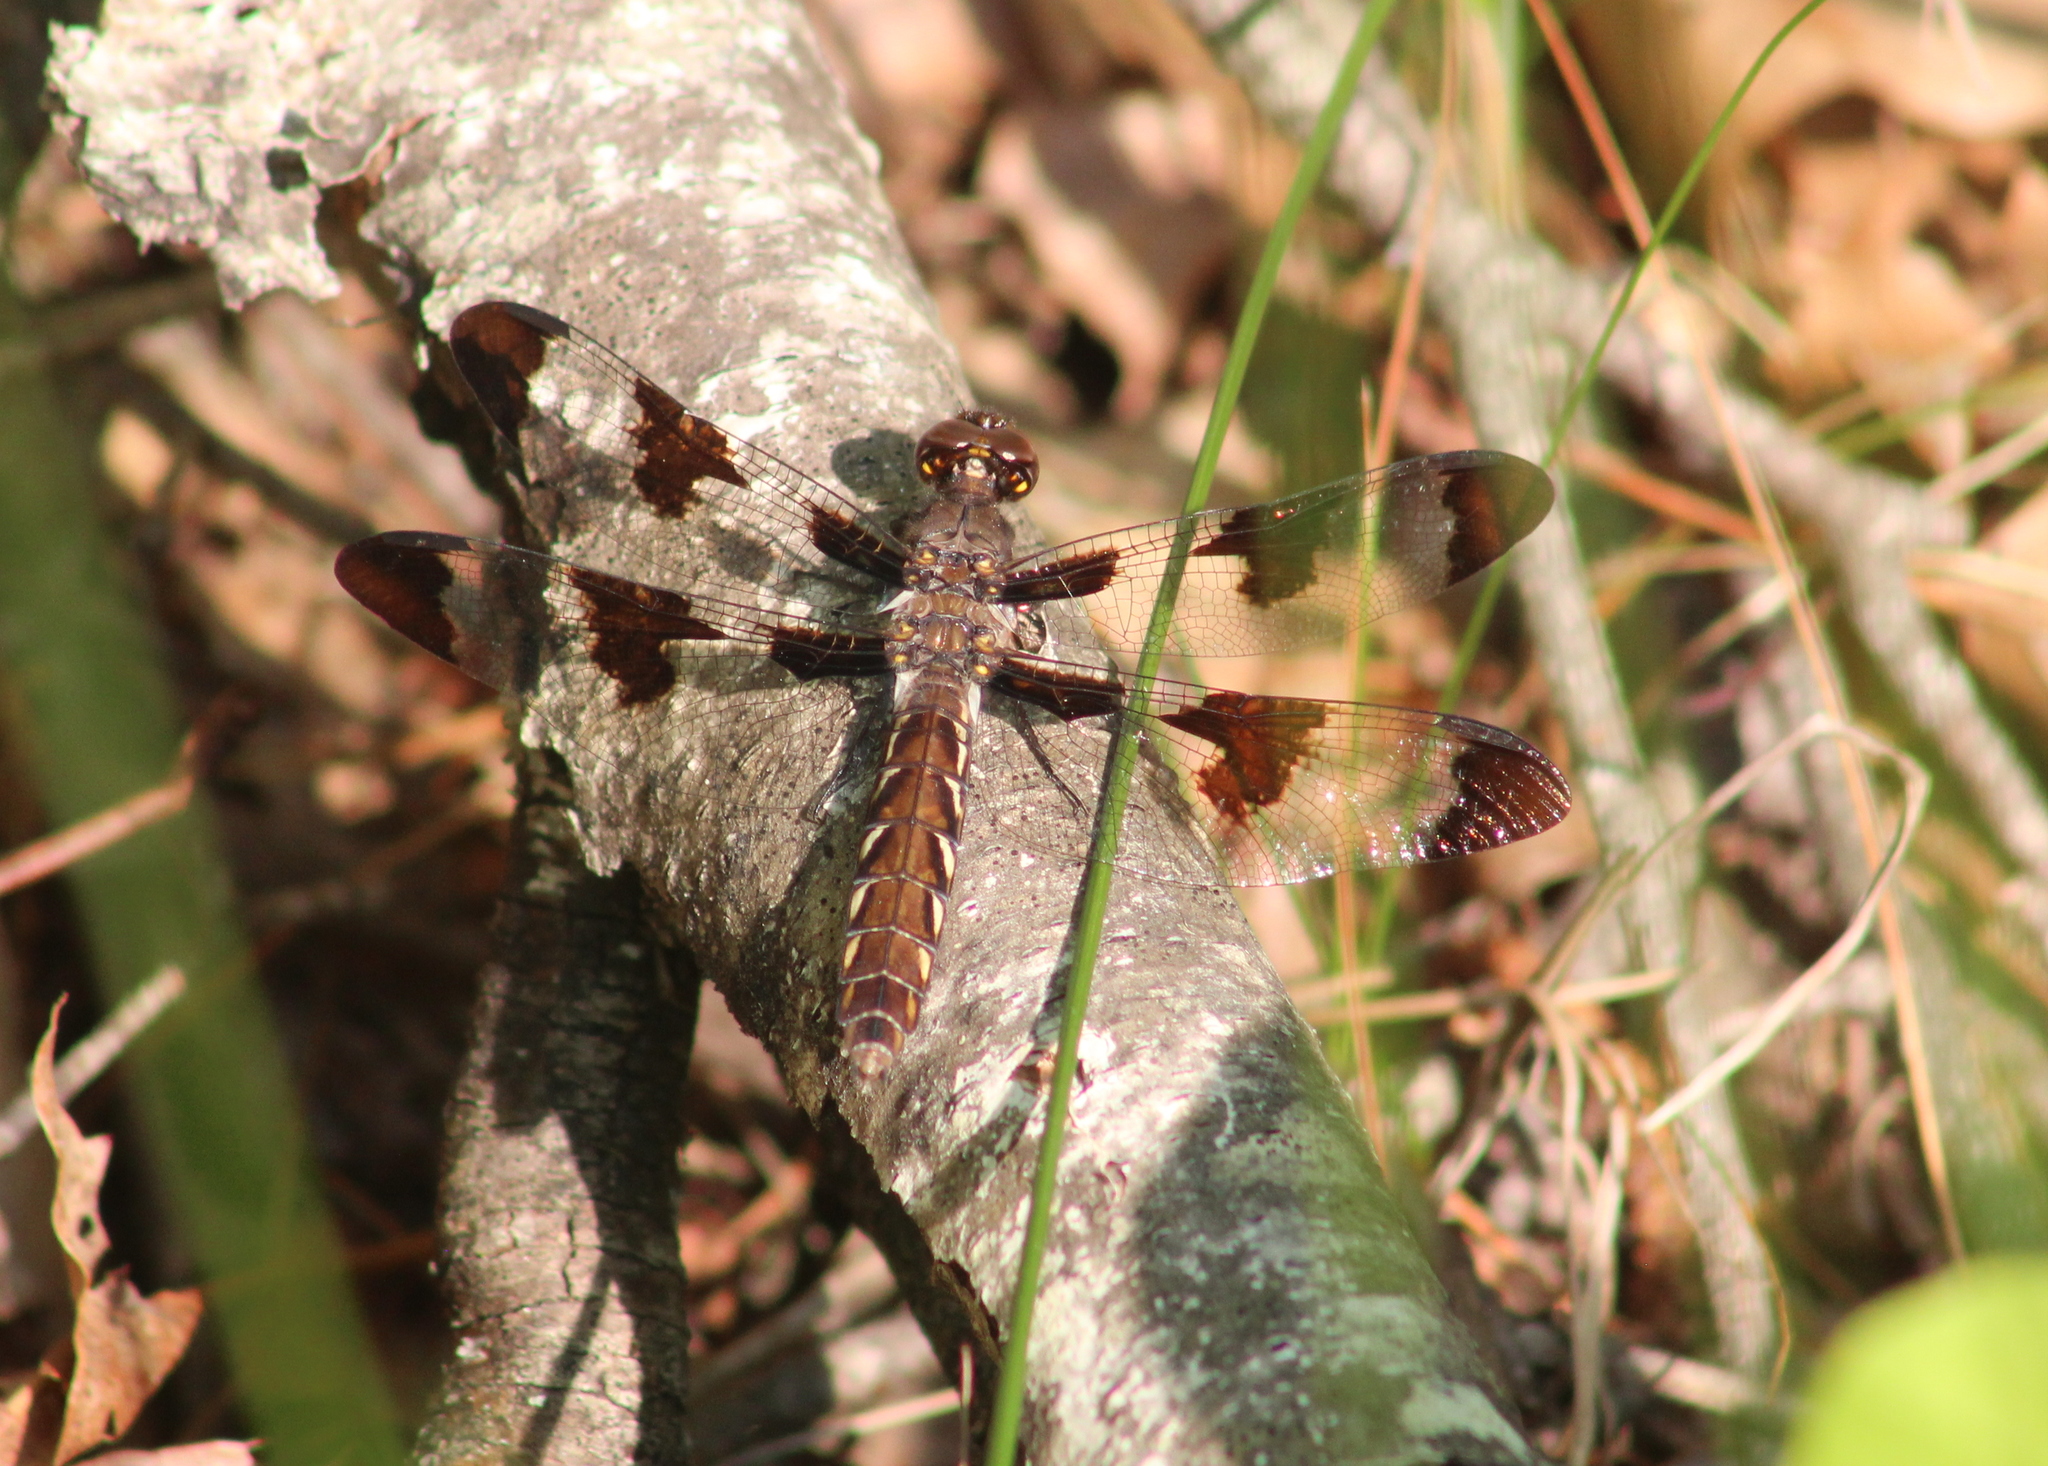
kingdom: Animalia
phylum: Arthropoda
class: Insecta
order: Odonata
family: Libellulidae
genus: Plathemis
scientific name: Plathemis lydia
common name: Common whitetail
